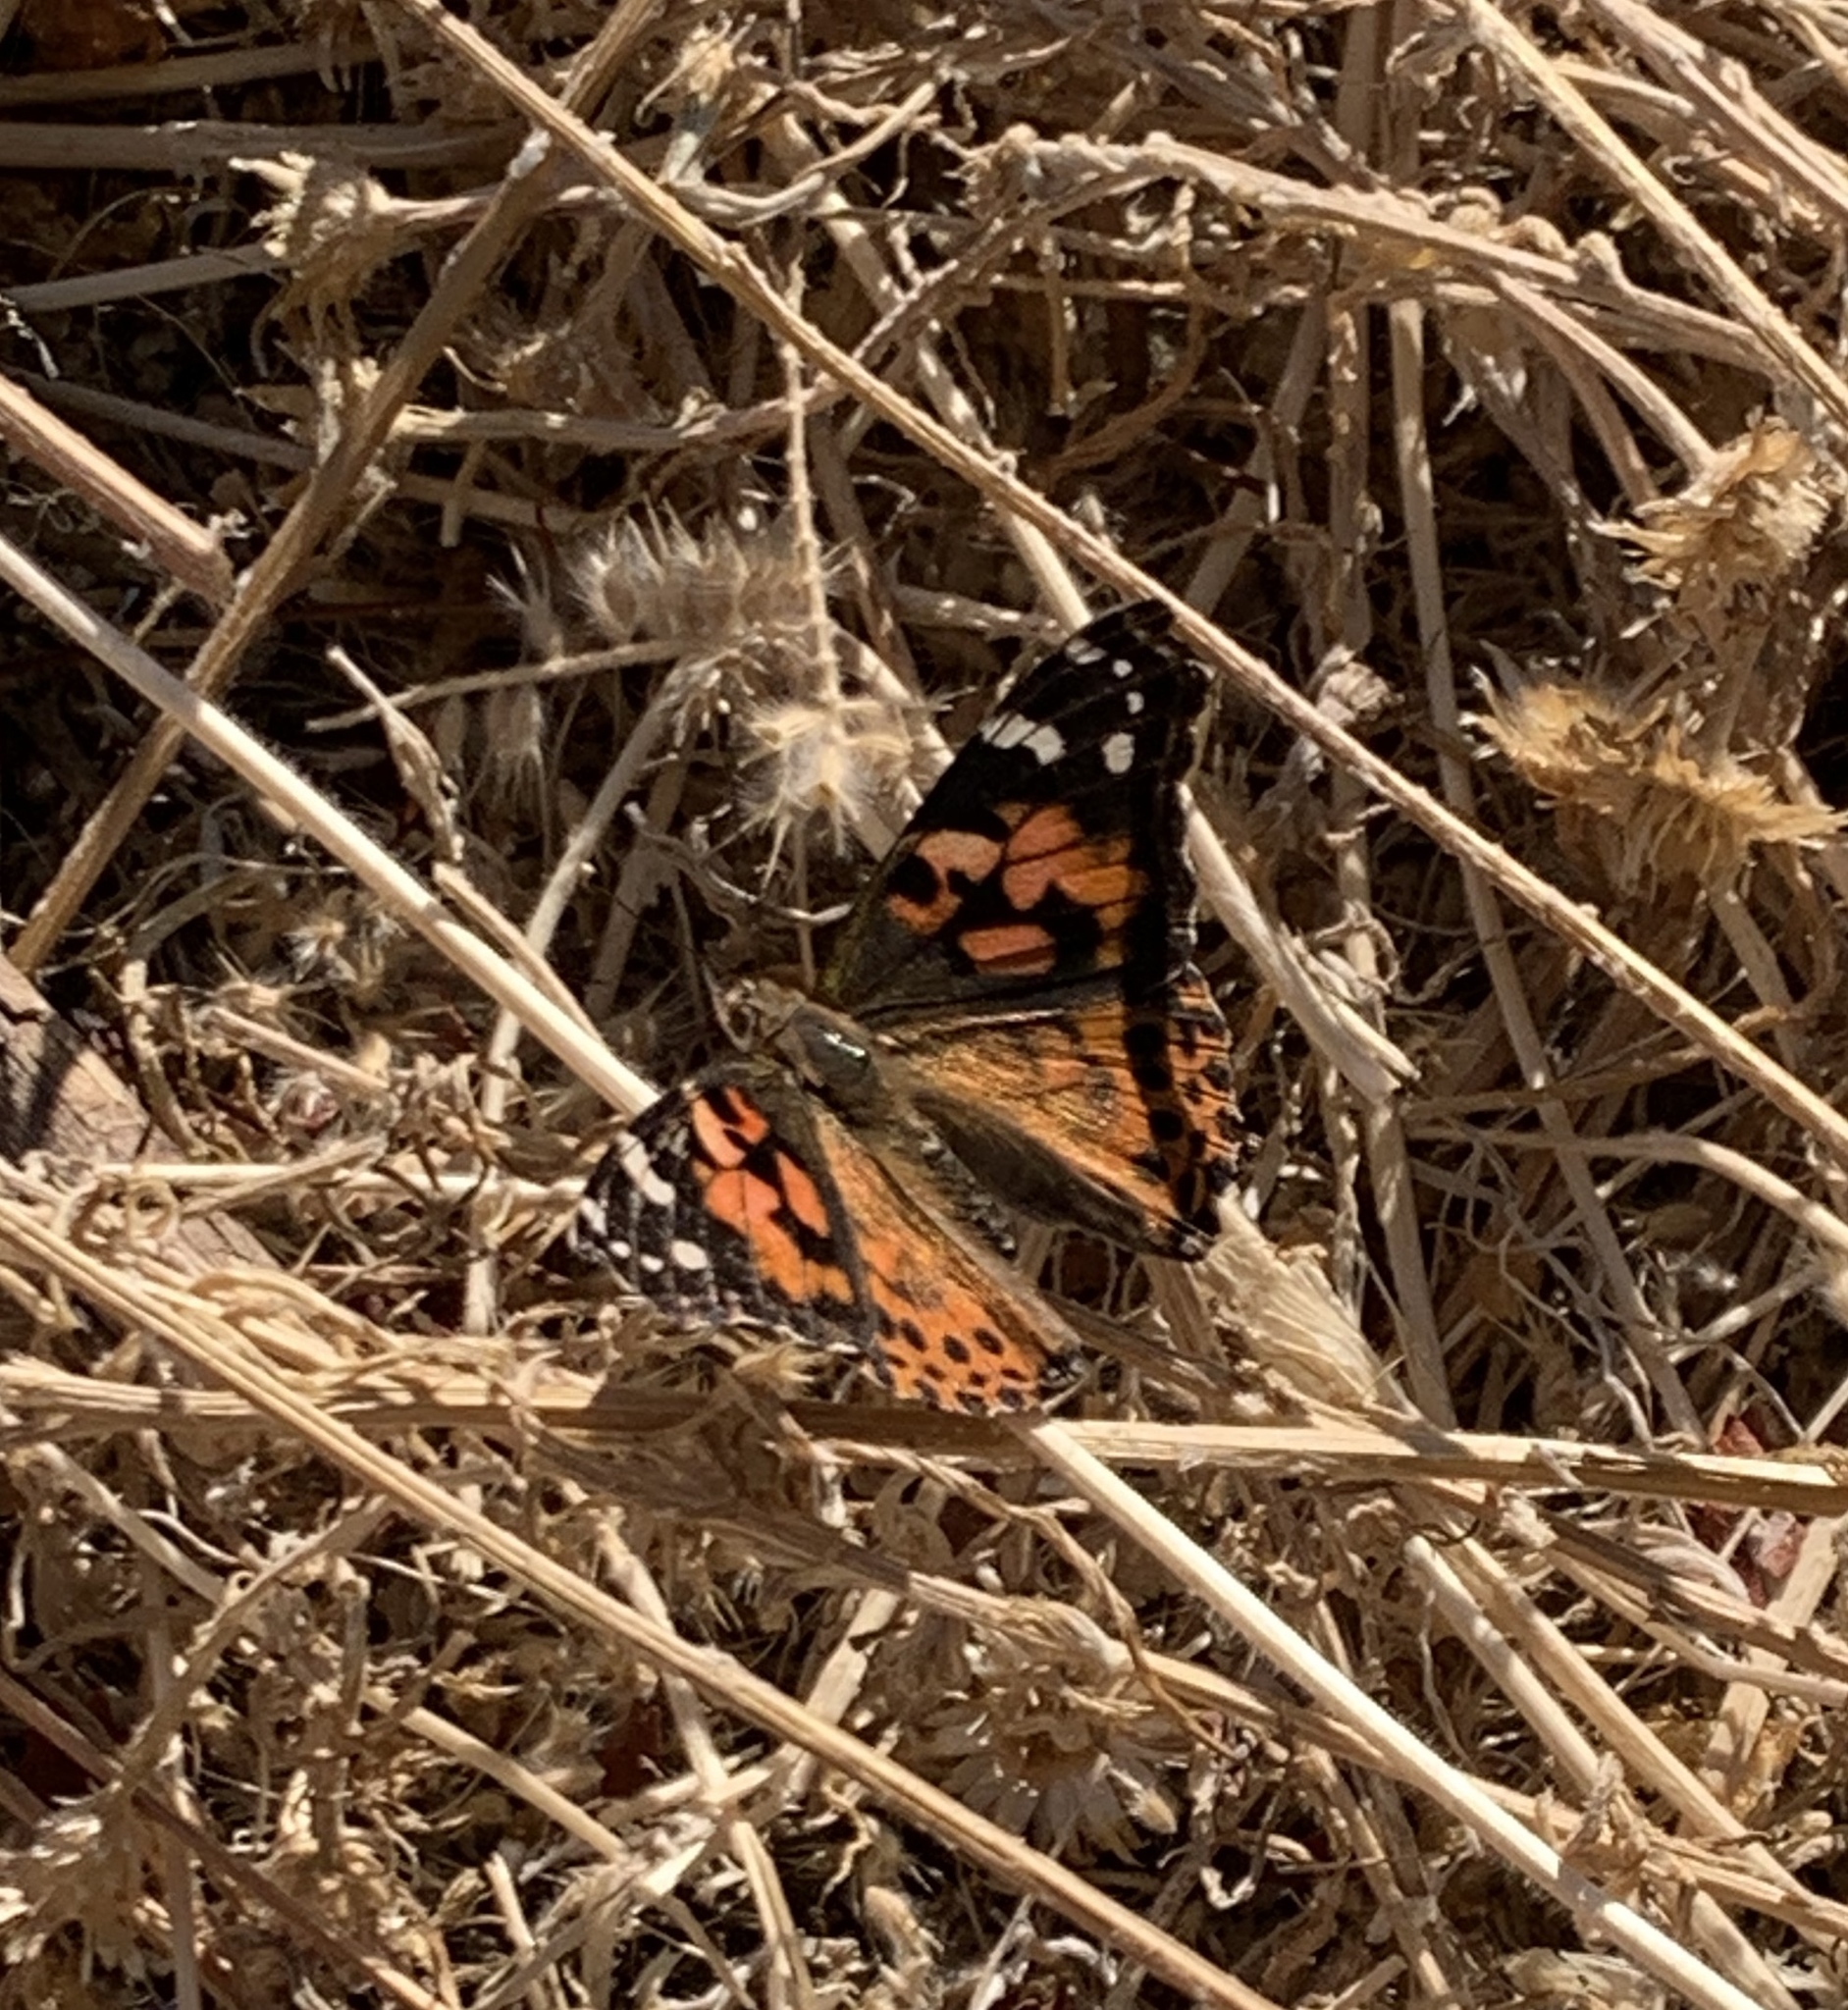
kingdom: Animalia
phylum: Arthropoda
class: Insecta
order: Lepidoptera
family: Nymphalidae
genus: Vanessa
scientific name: Vanessa cardui
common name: Painted lady
